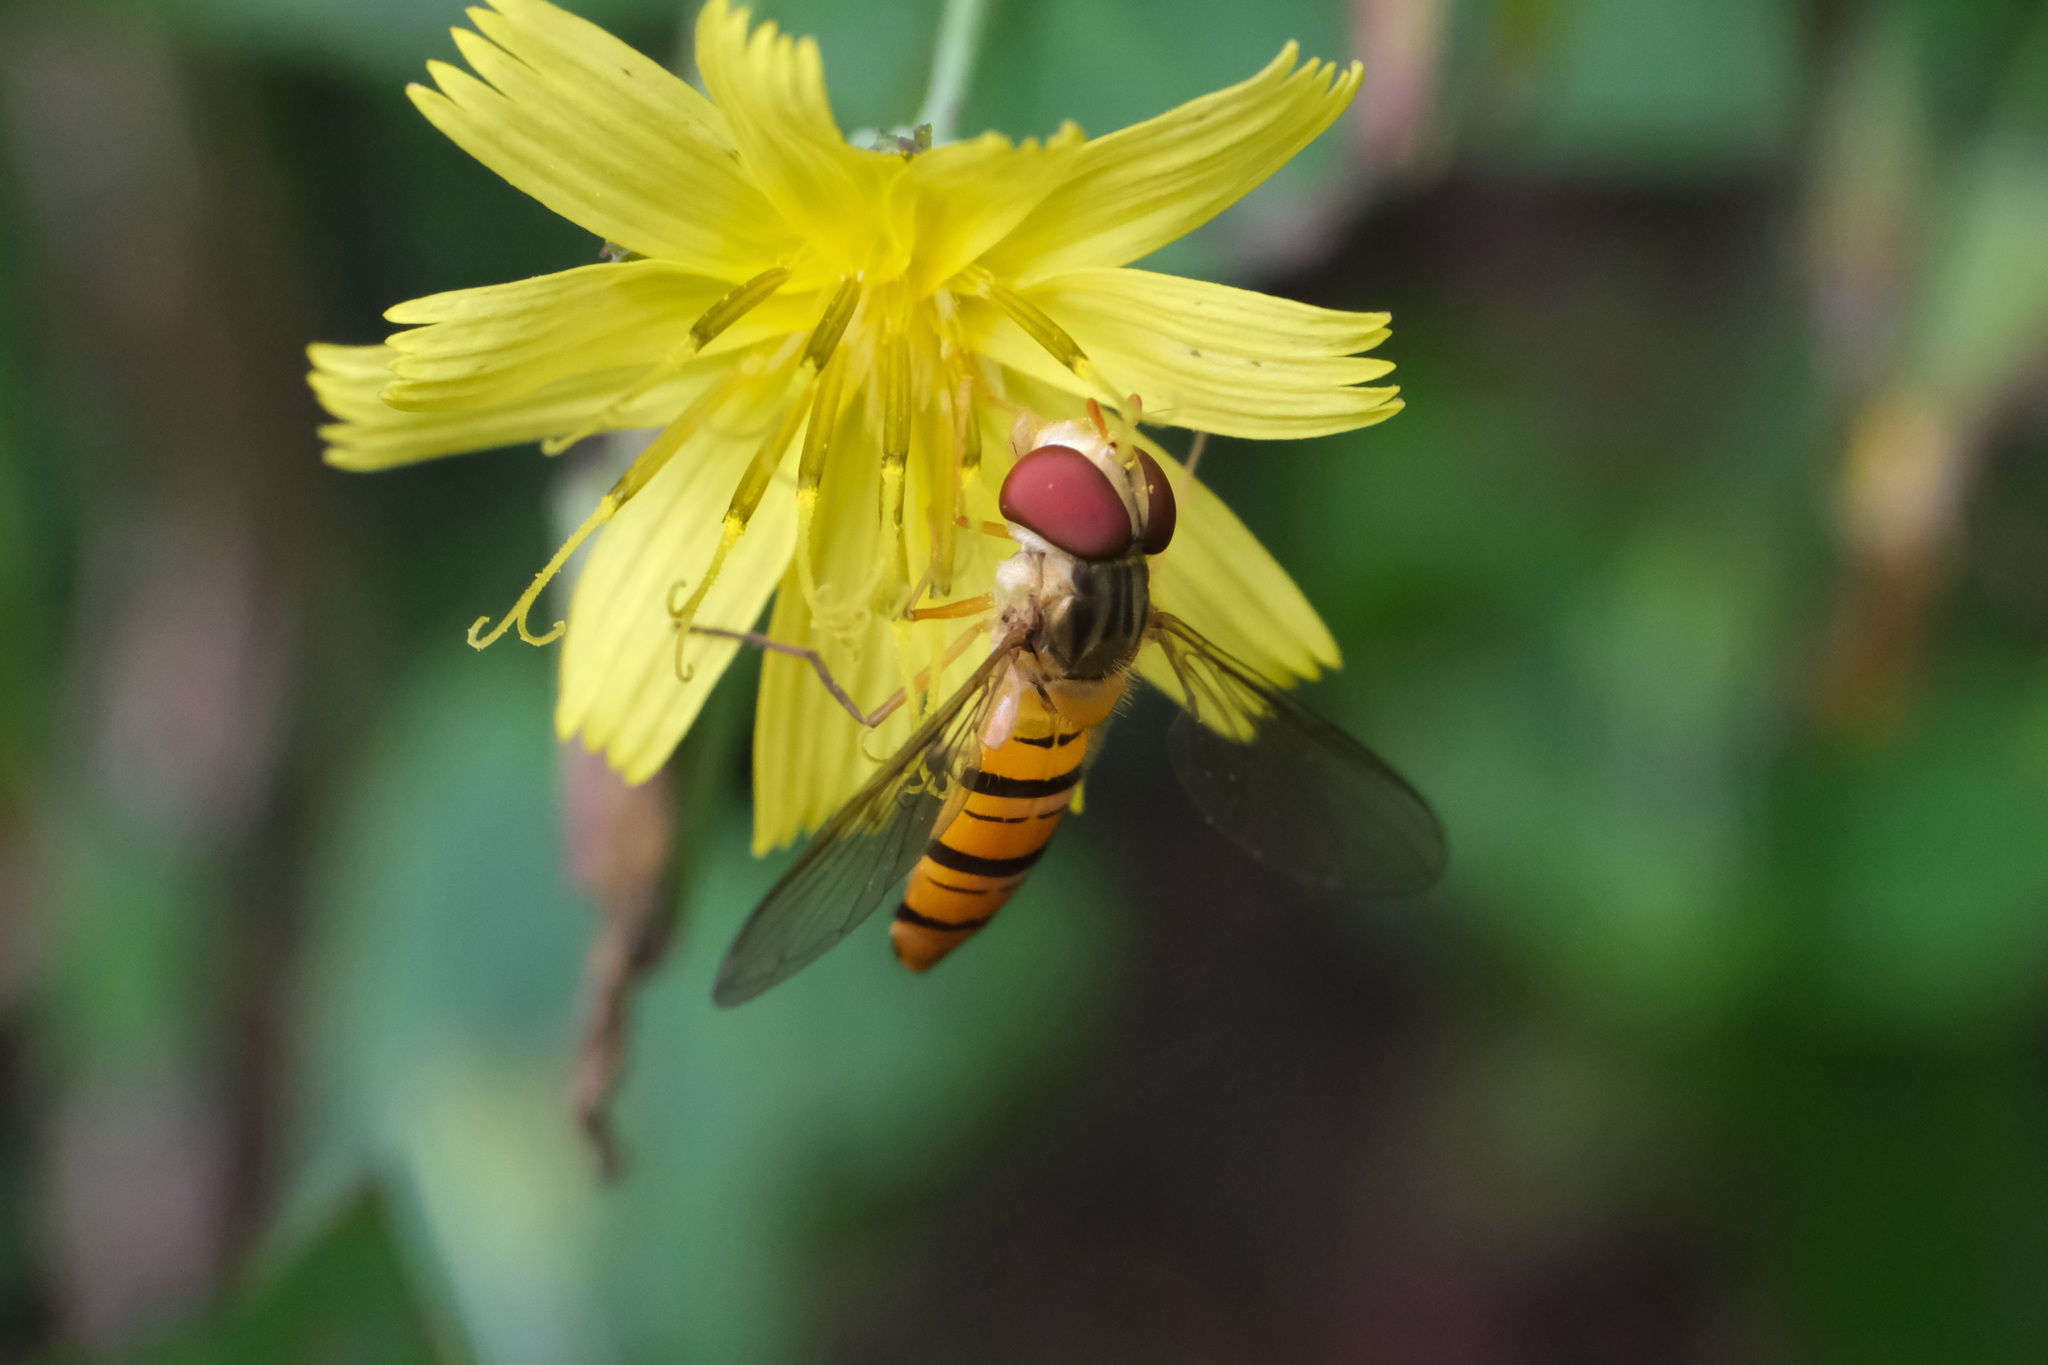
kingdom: Animalia
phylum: Arthropoda
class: Insecta
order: Diptera
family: Syrphidae
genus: Episyrphus
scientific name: Episyrphus balteatus
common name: Marmalade hoverfly
